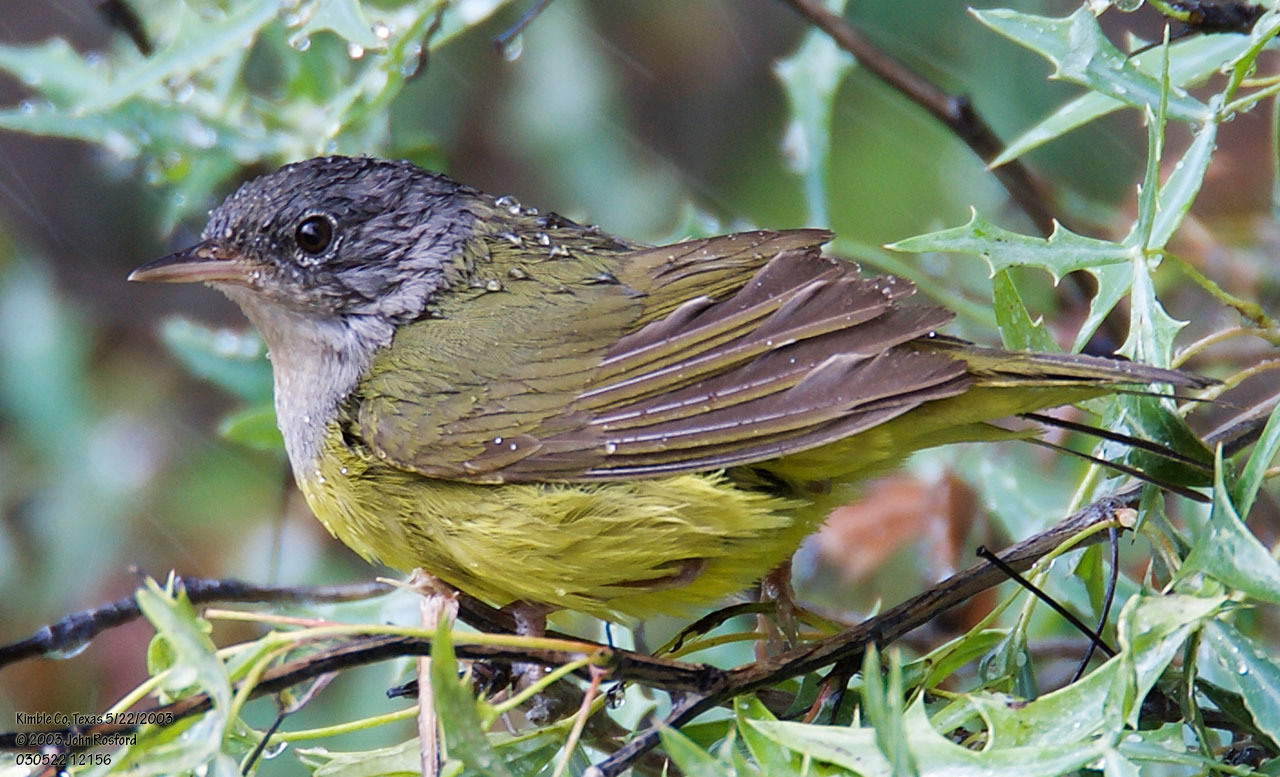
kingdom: Animalia
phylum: Chordata
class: Aves
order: Passeriformes
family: Parulidae
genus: Geothlypis
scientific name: Geothlypis philadelphia
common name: Mourning warbler
